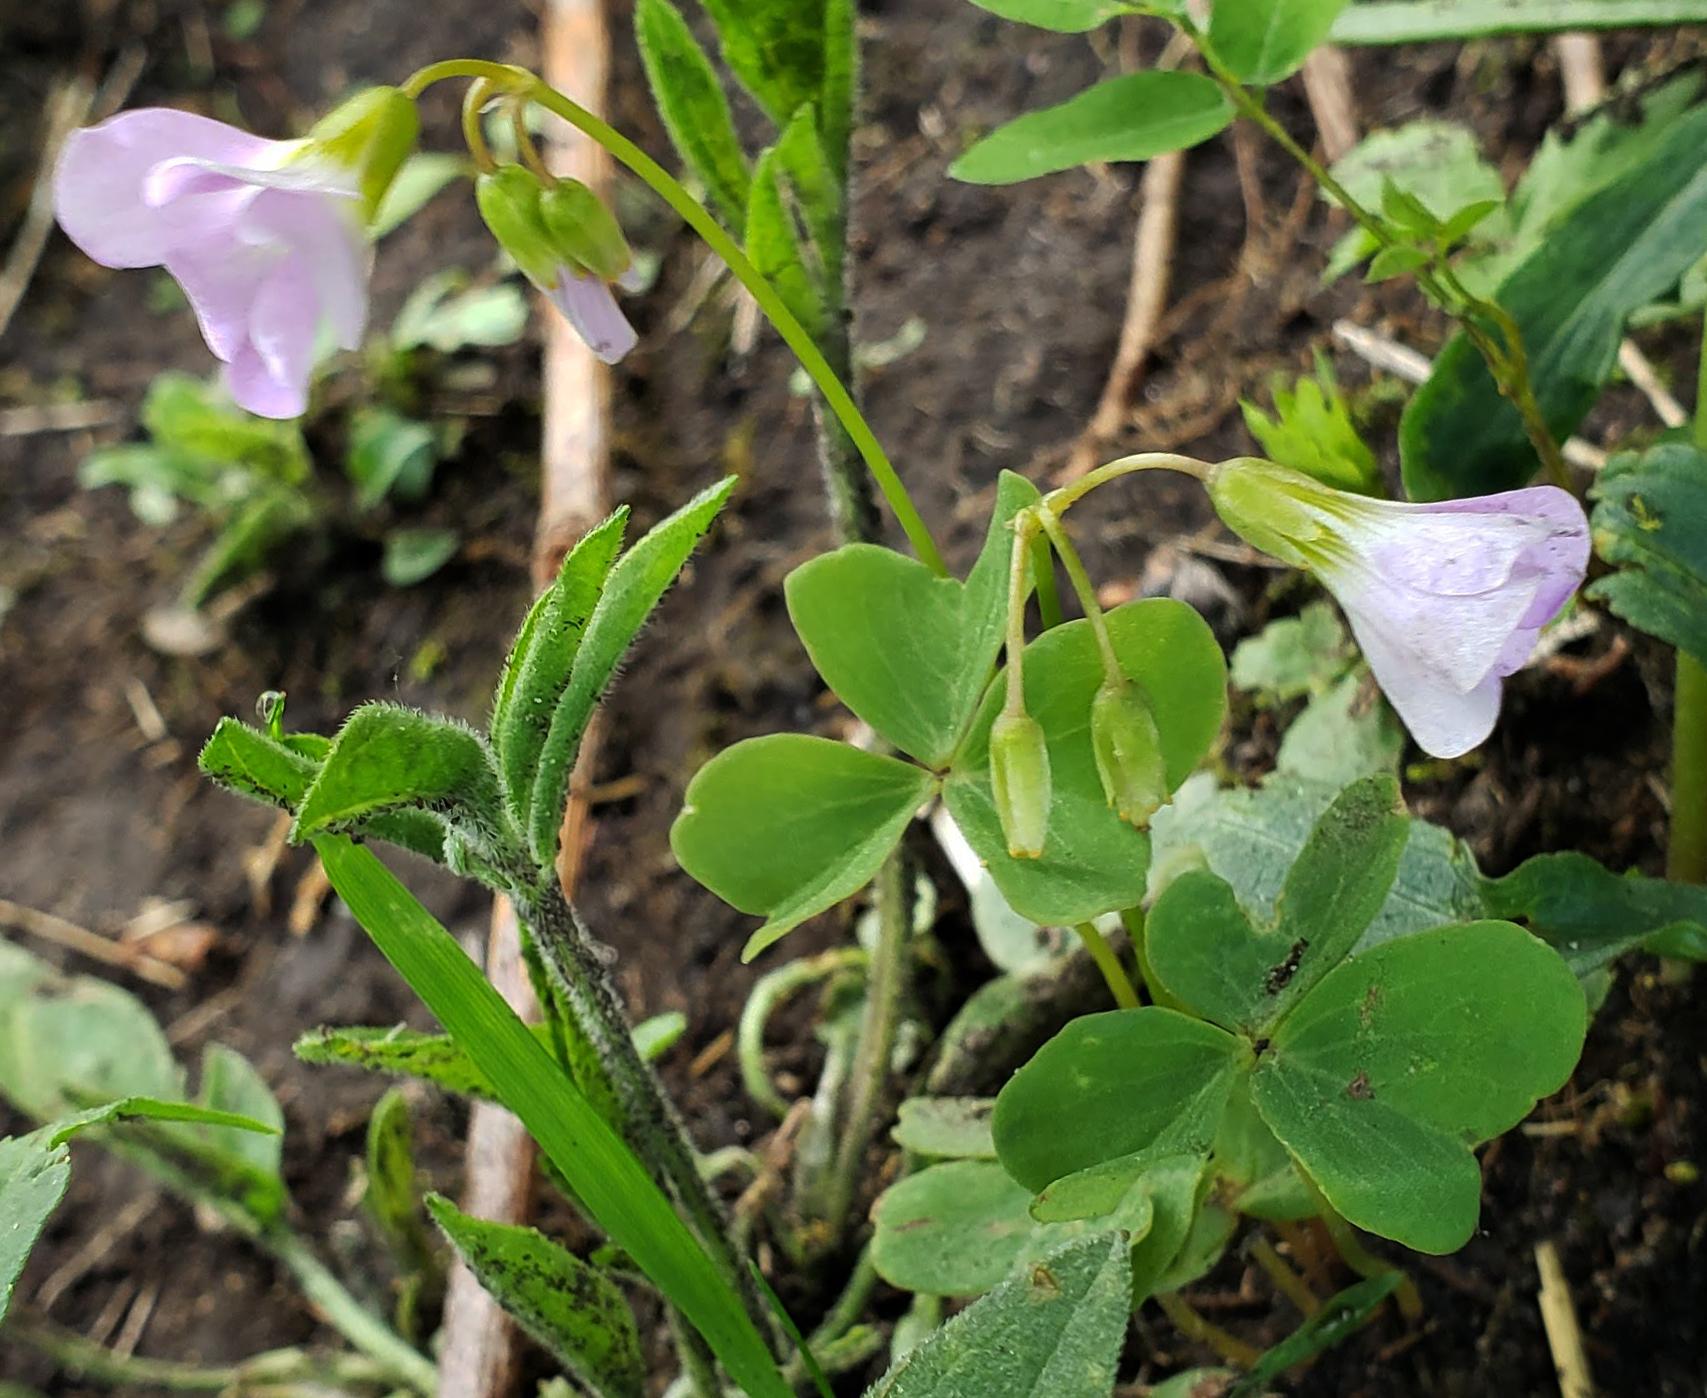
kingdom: Plantae
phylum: Tracheophyta
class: Magnoliopsida
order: Oxalidales
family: Oxalidaceae
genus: Oxalis
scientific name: Oxalis violacea
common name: Violet wood-sorrel
